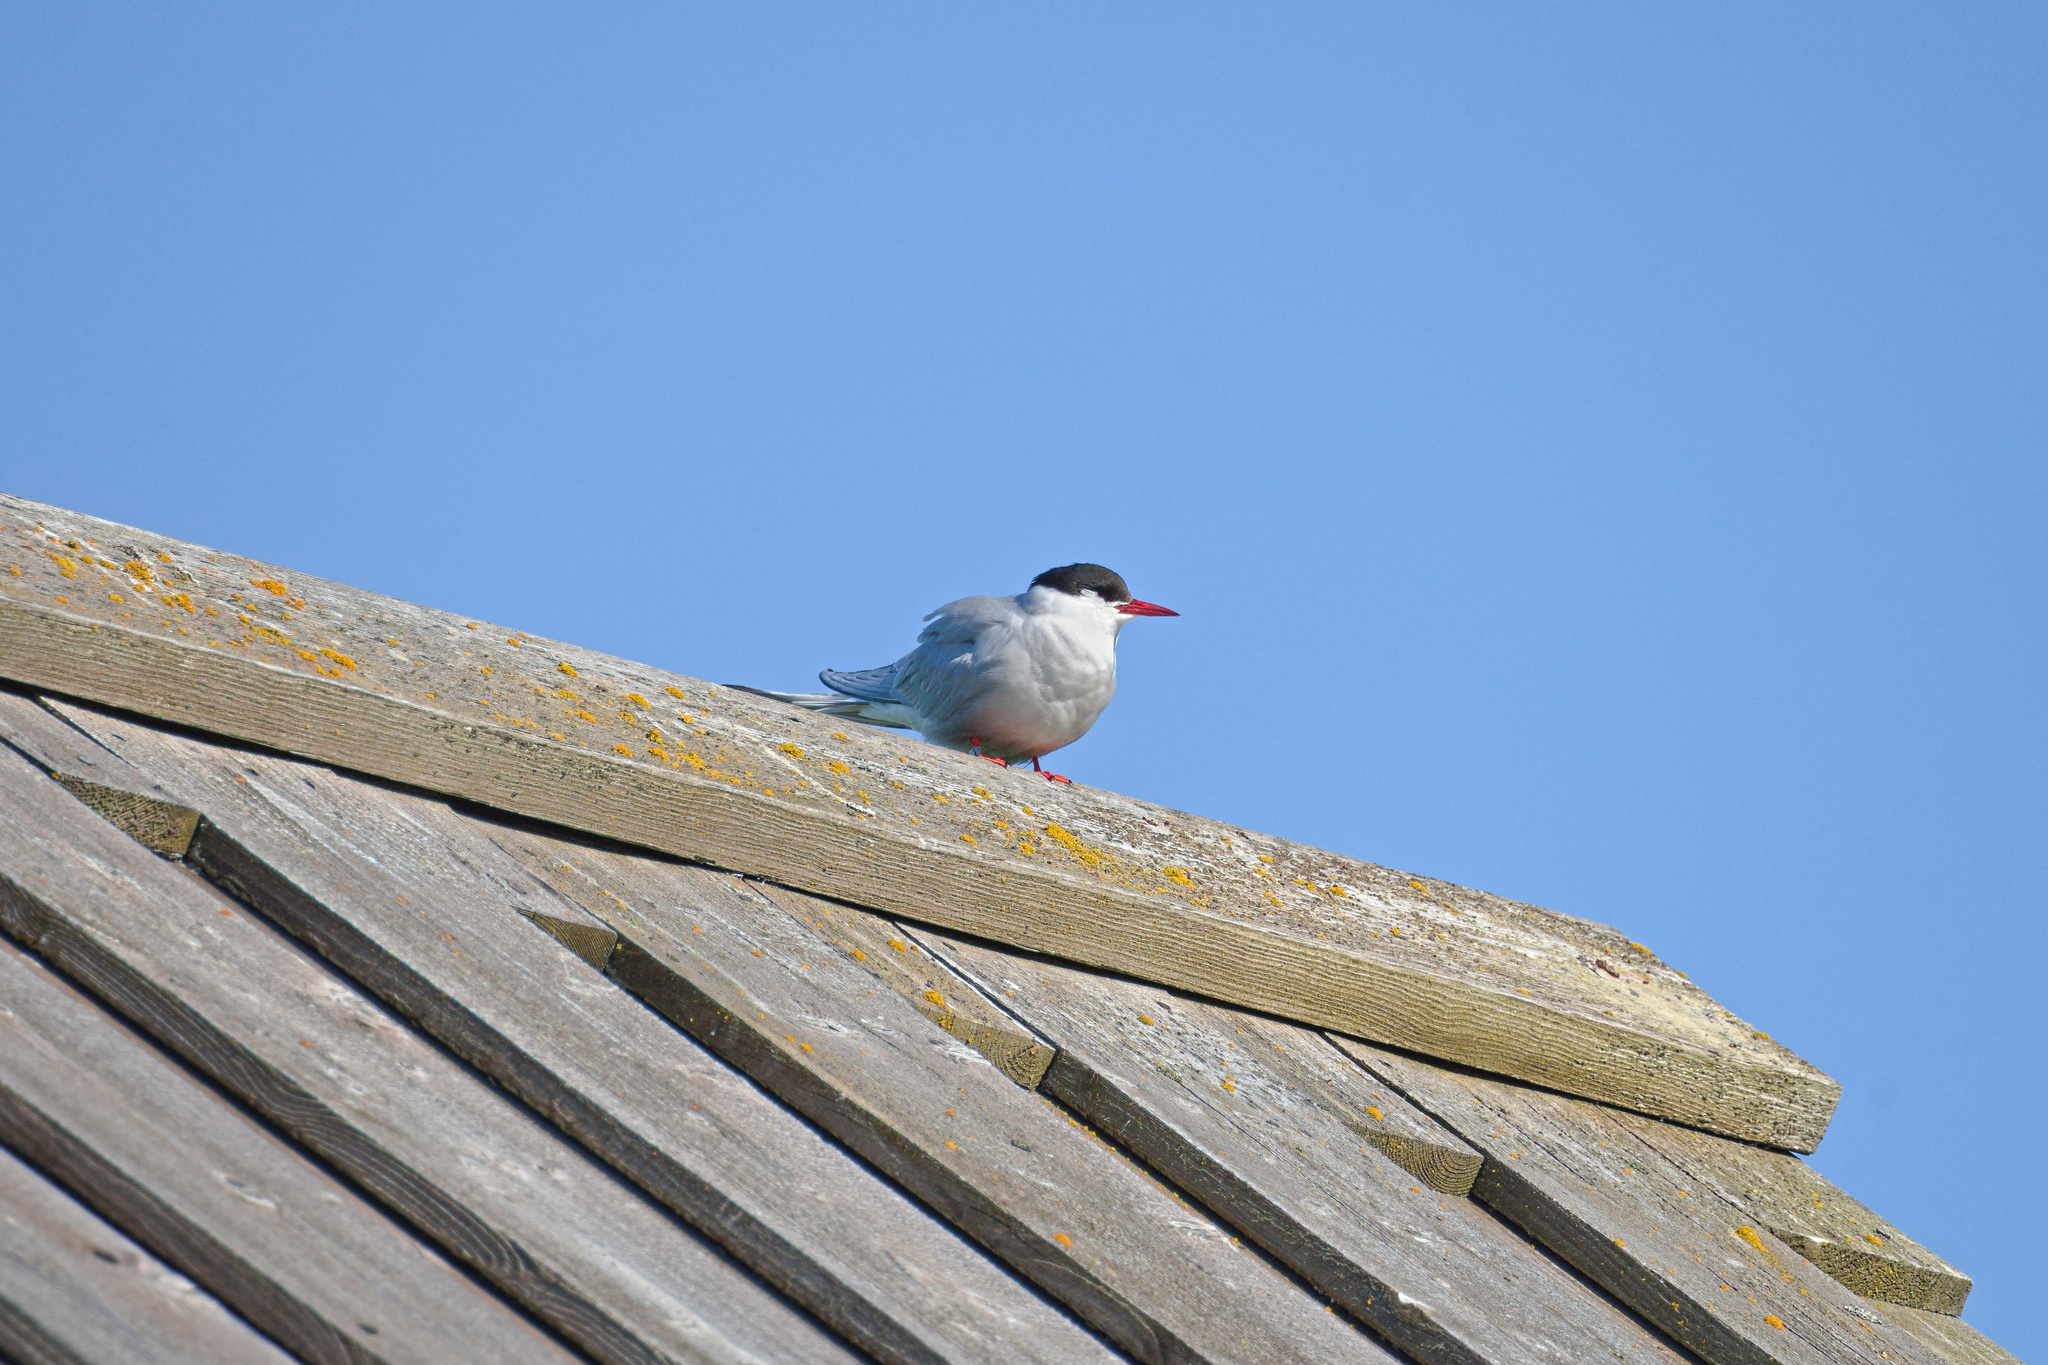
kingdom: Animalia
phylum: Chordata
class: Aves
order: Charadriiformes
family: Laridae
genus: Sterna
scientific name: Sterna paradisaea
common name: Arctic tern
